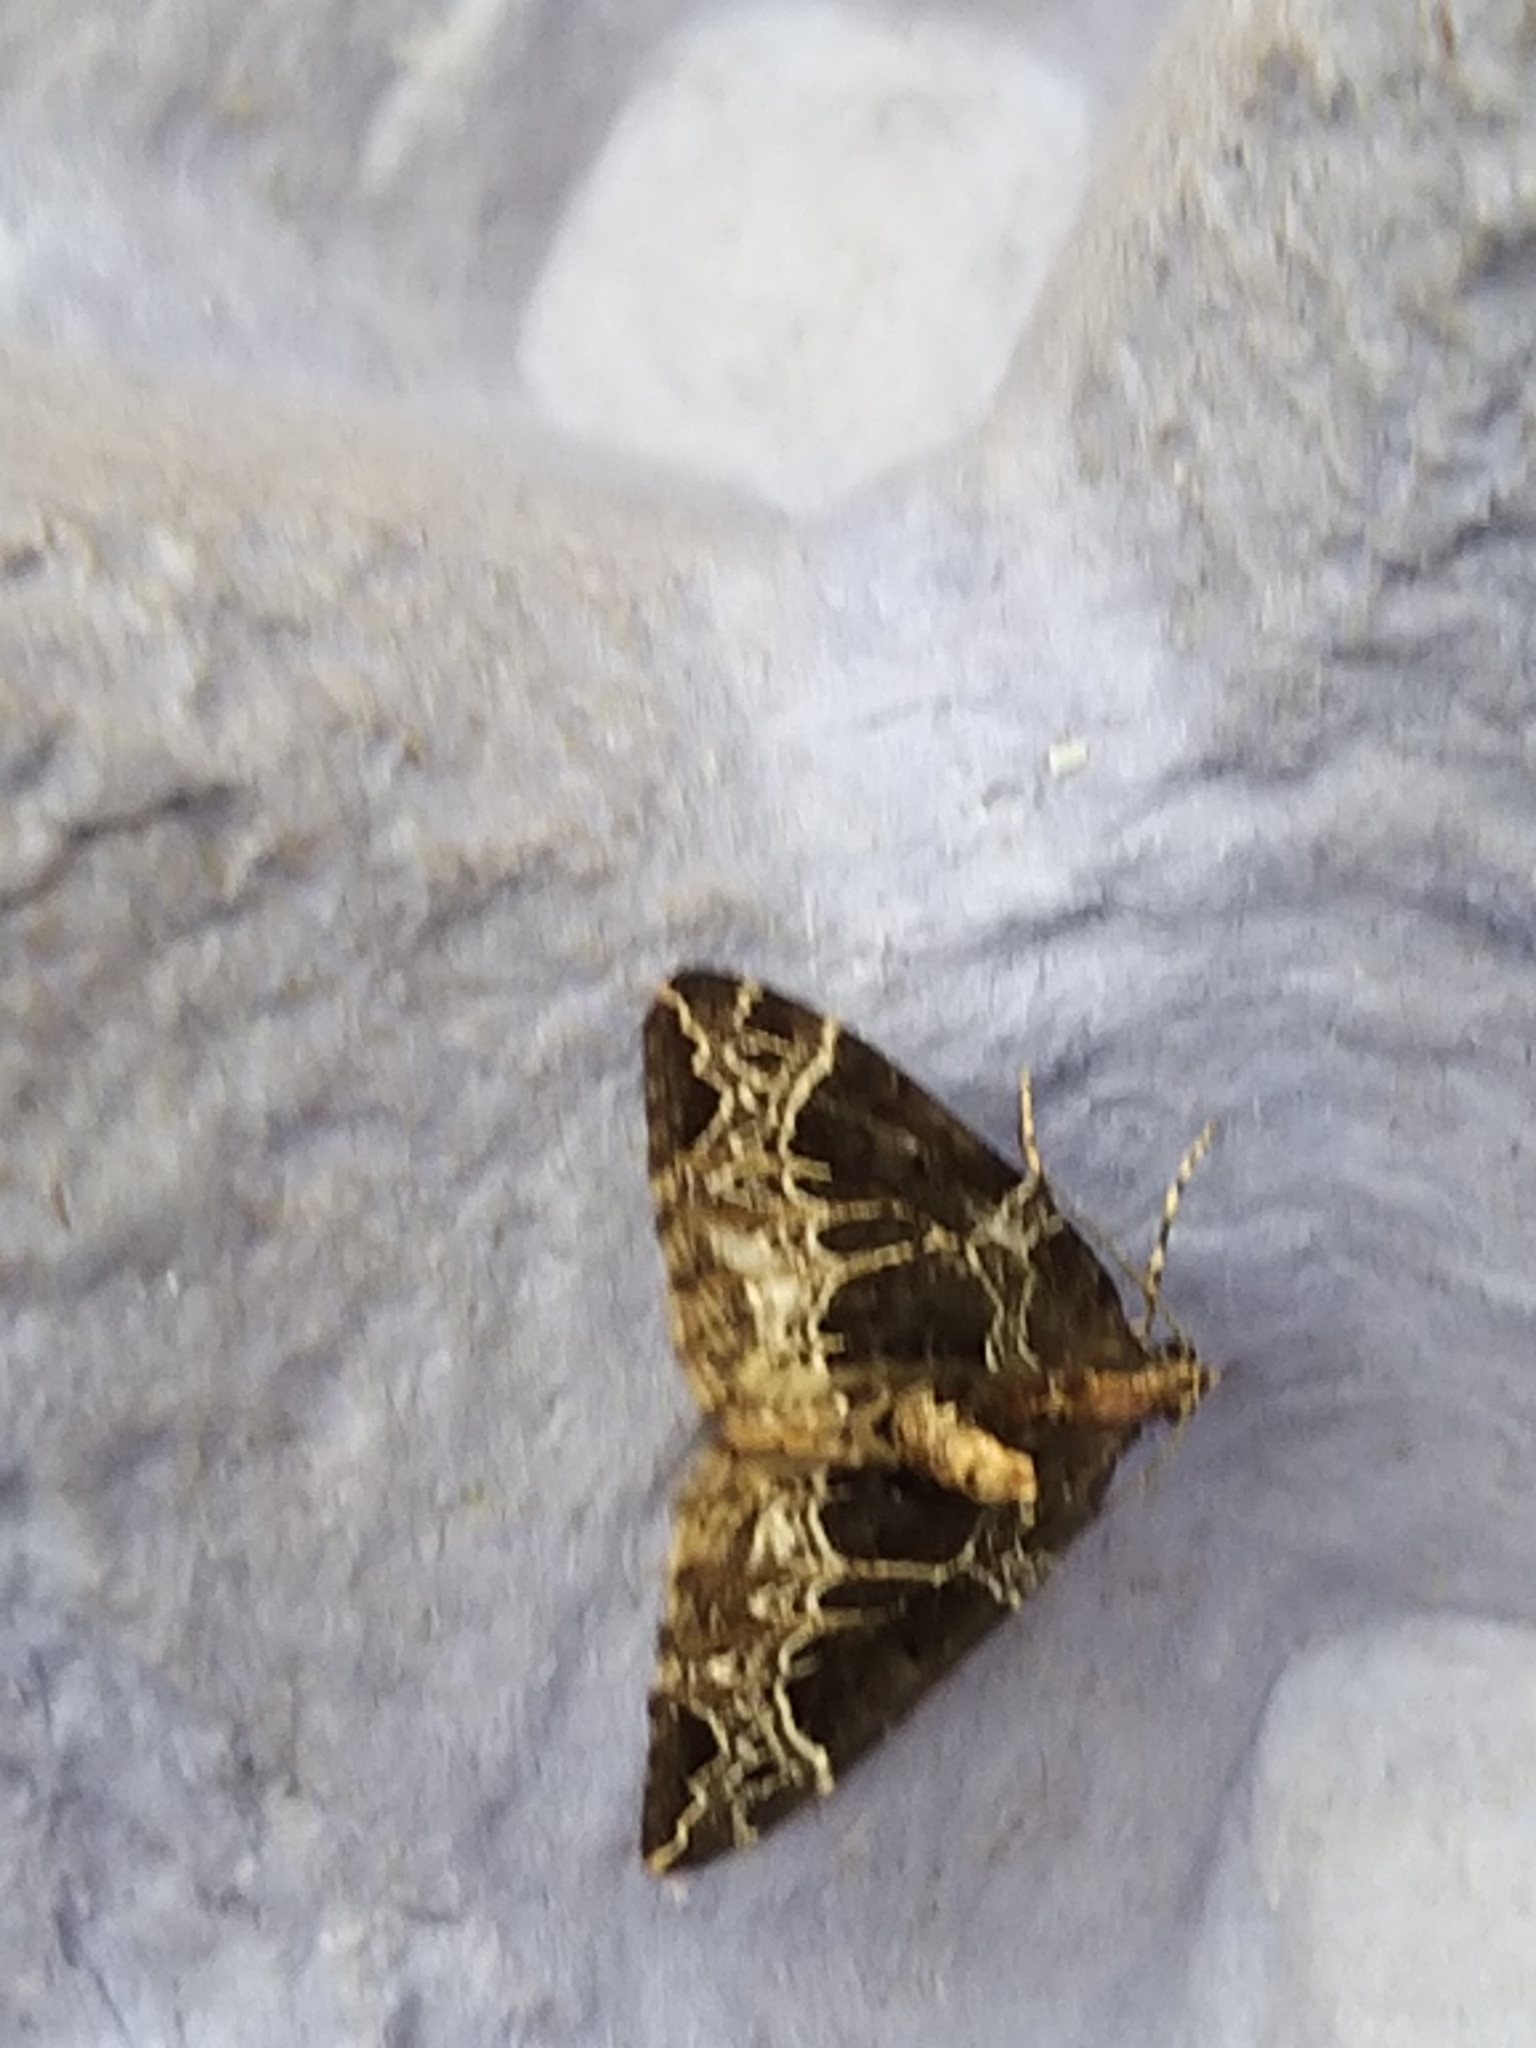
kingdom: Animalia
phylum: Arthropoda
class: Insecta
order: Lepidoptera
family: Geometridae
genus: Ecliptopera
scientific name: Ecliptopera silaceata
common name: Small phoenix
